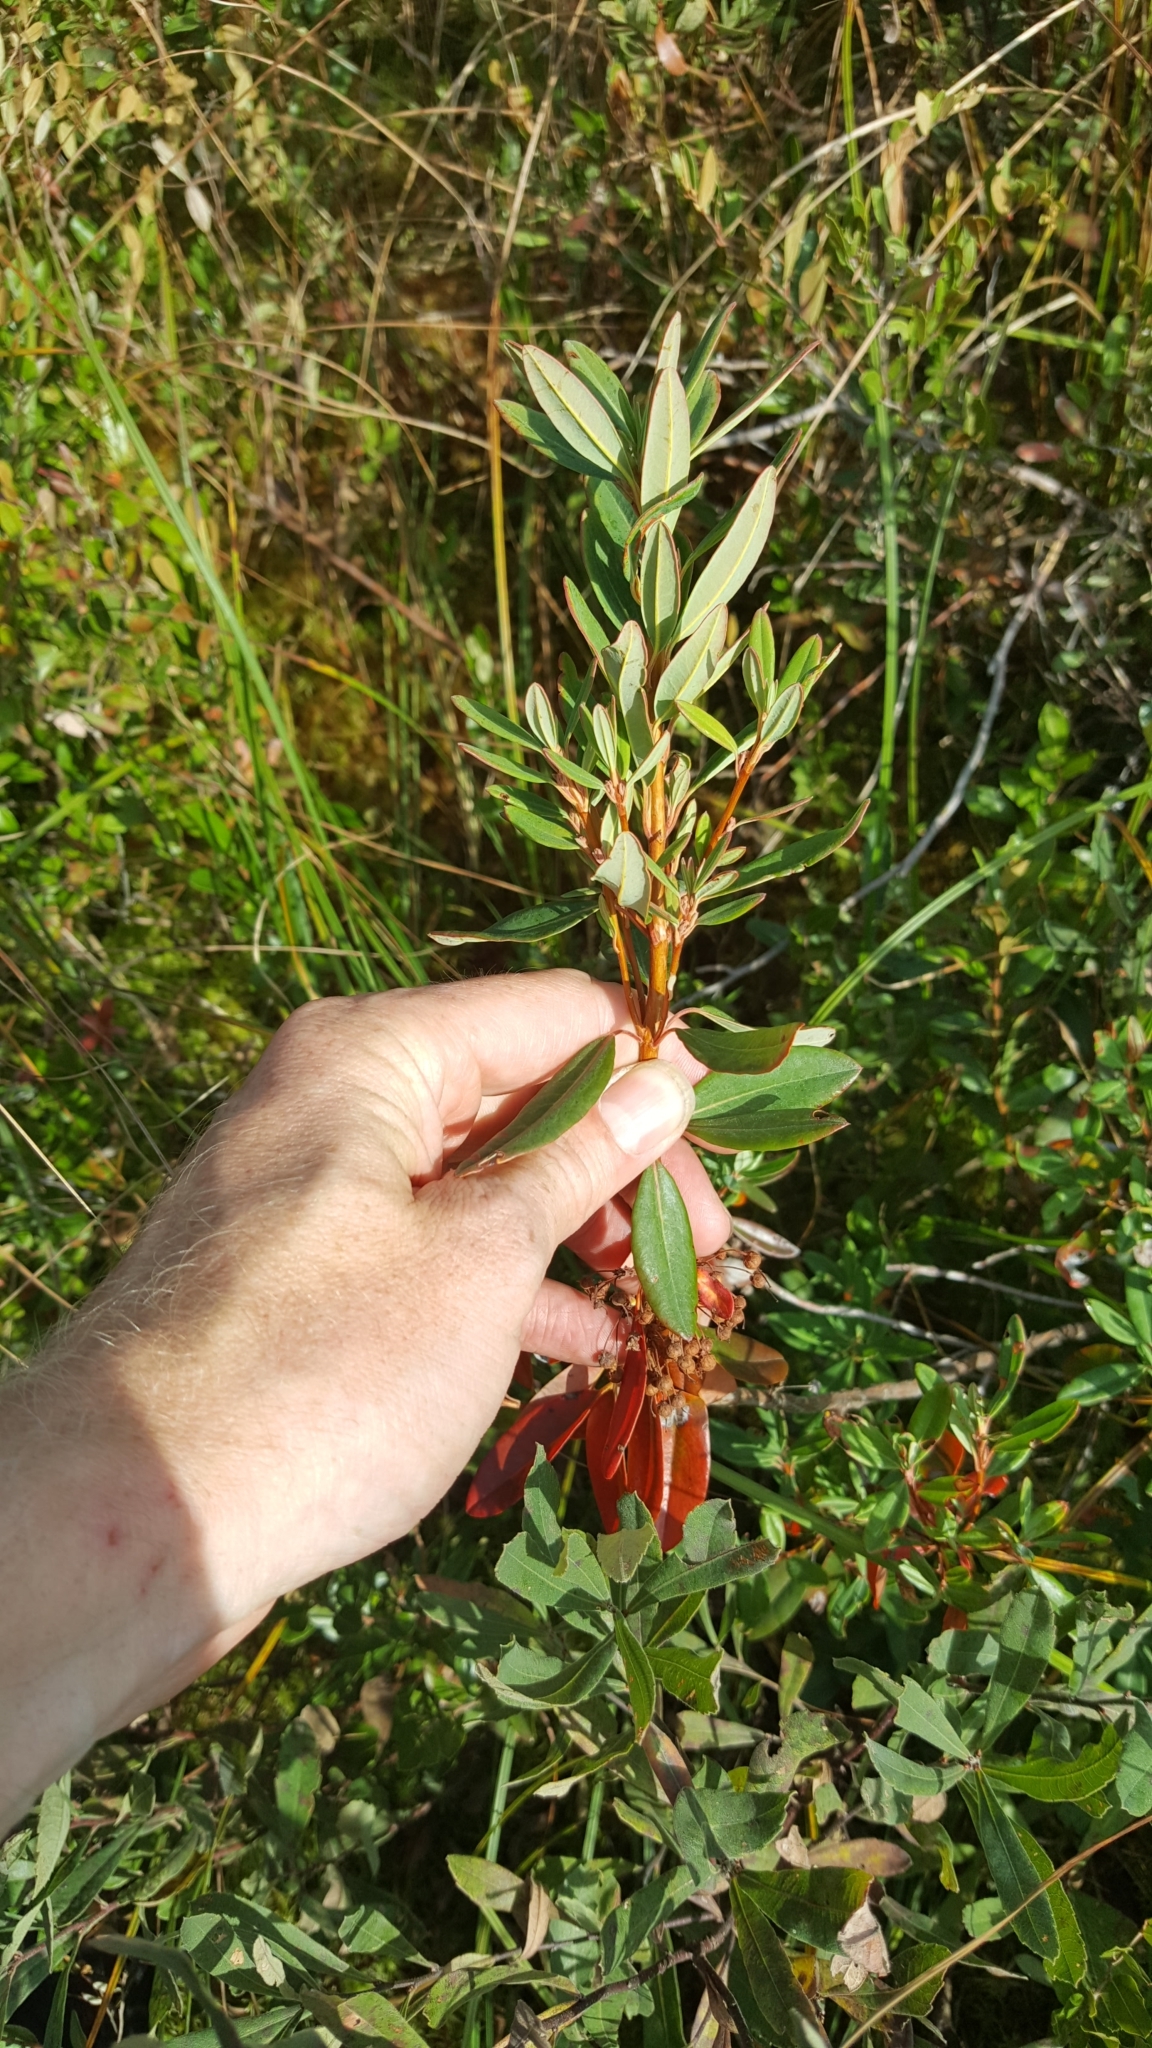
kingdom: Plantae
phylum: Tracheophyta
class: Magnoliopsida
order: Ericales
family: Ericaceae
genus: Kalmia
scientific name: Kalmia angustifolia
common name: Sheep-laurel
